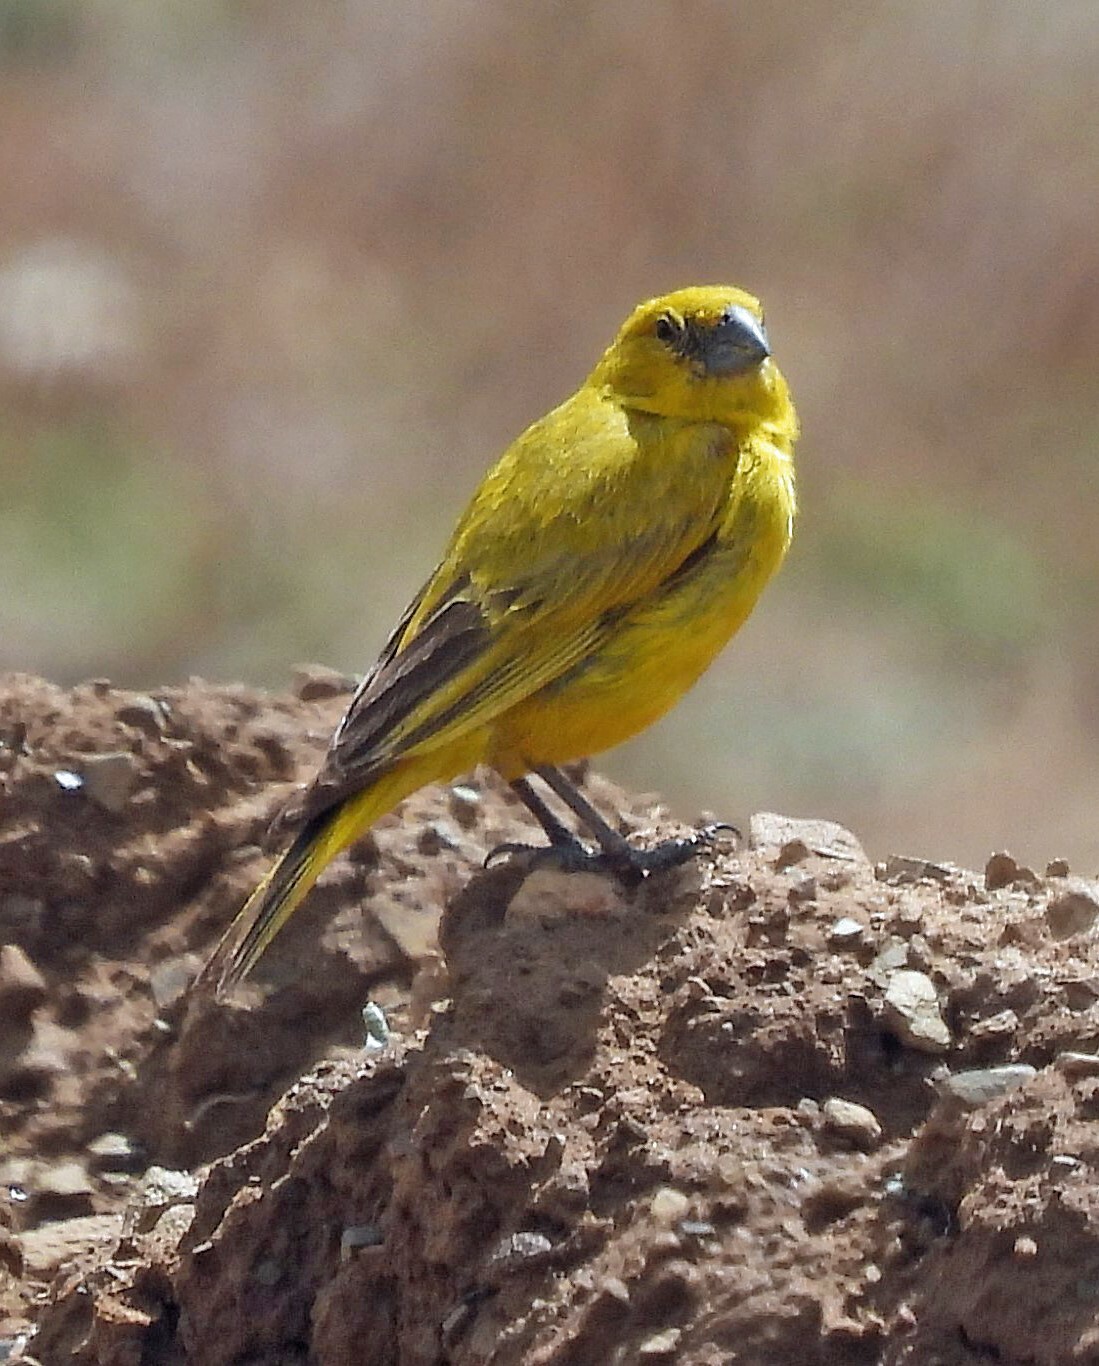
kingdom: Animalia
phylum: Chordata
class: Aves
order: Passeriformes
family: Thraupidae
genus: Sicalis
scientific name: Sicalis lutea
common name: Puna yellow finch
